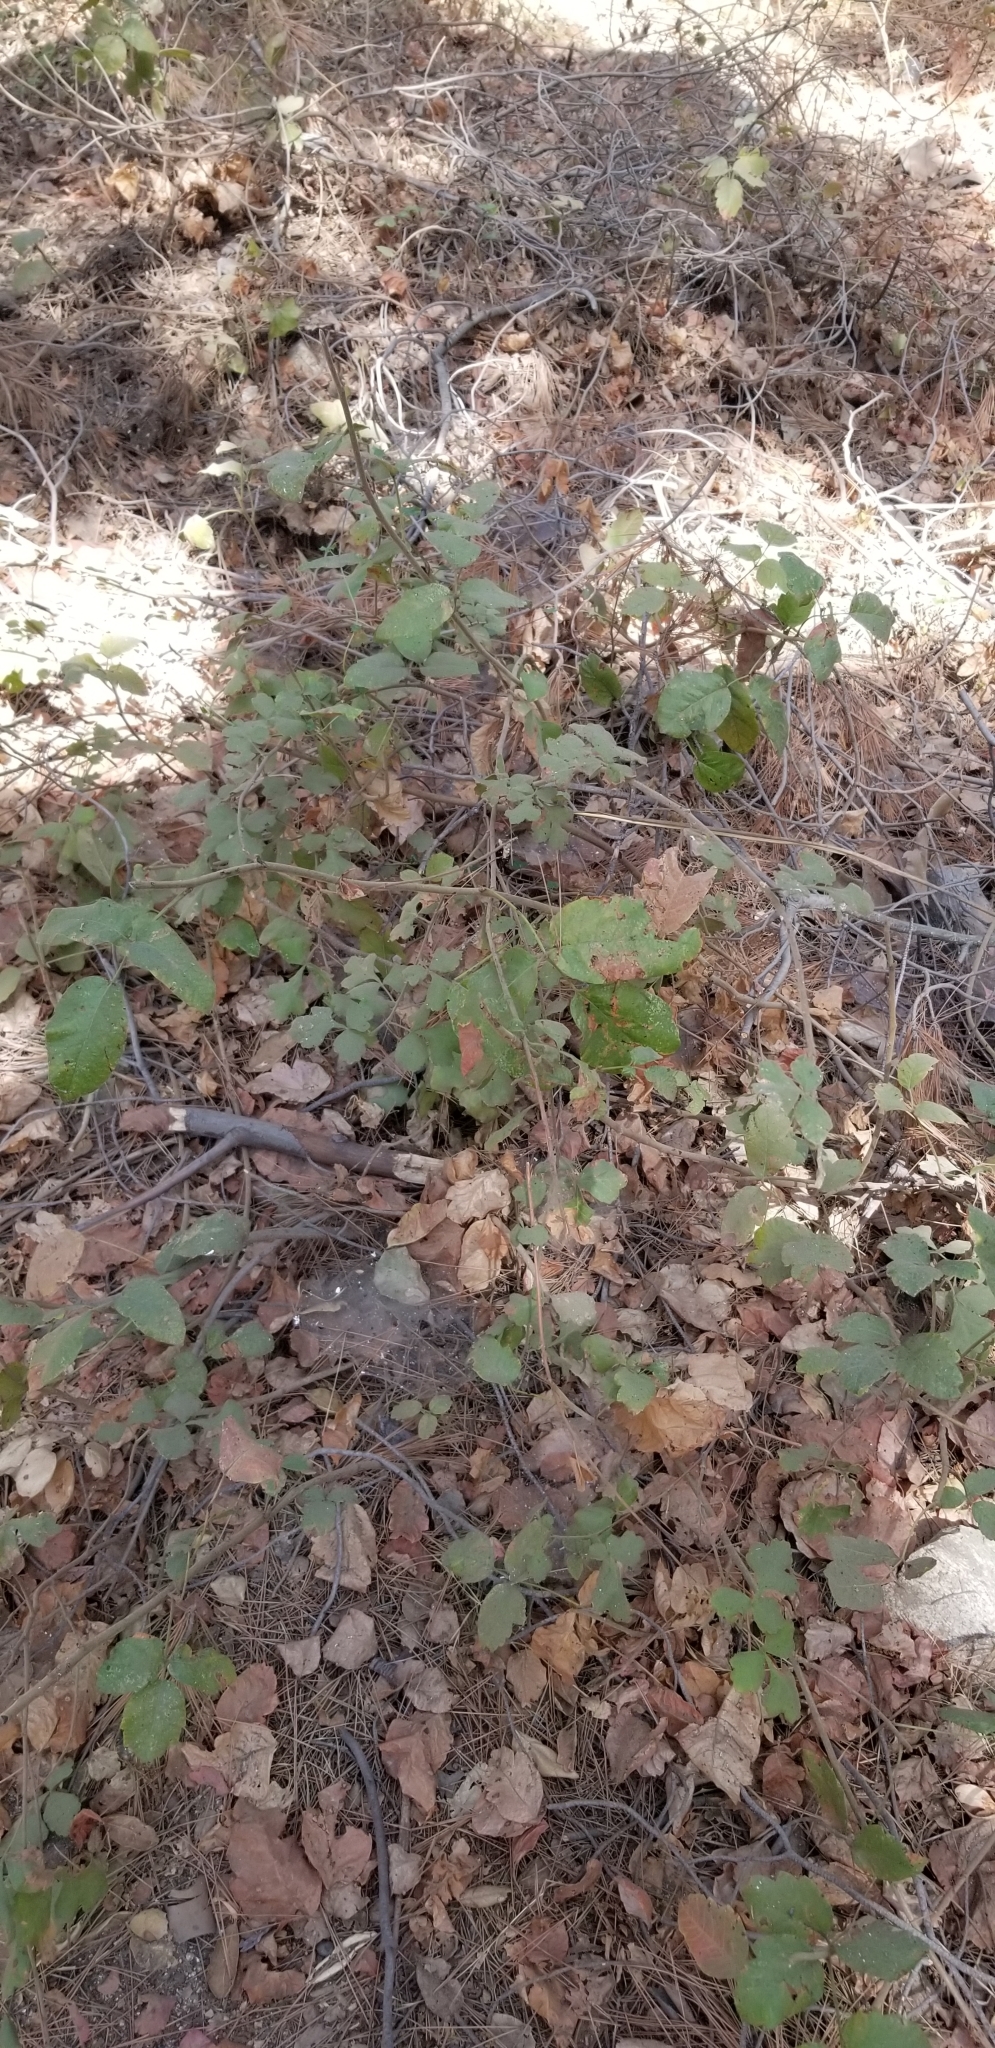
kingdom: Plantae
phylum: Tracheophyta
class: Magnoliopsida
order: Sapindales
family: Anacardiaceae
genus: Toxicodendron
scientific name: Toxicodendron diversilobum
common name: Pacific poison-oak
